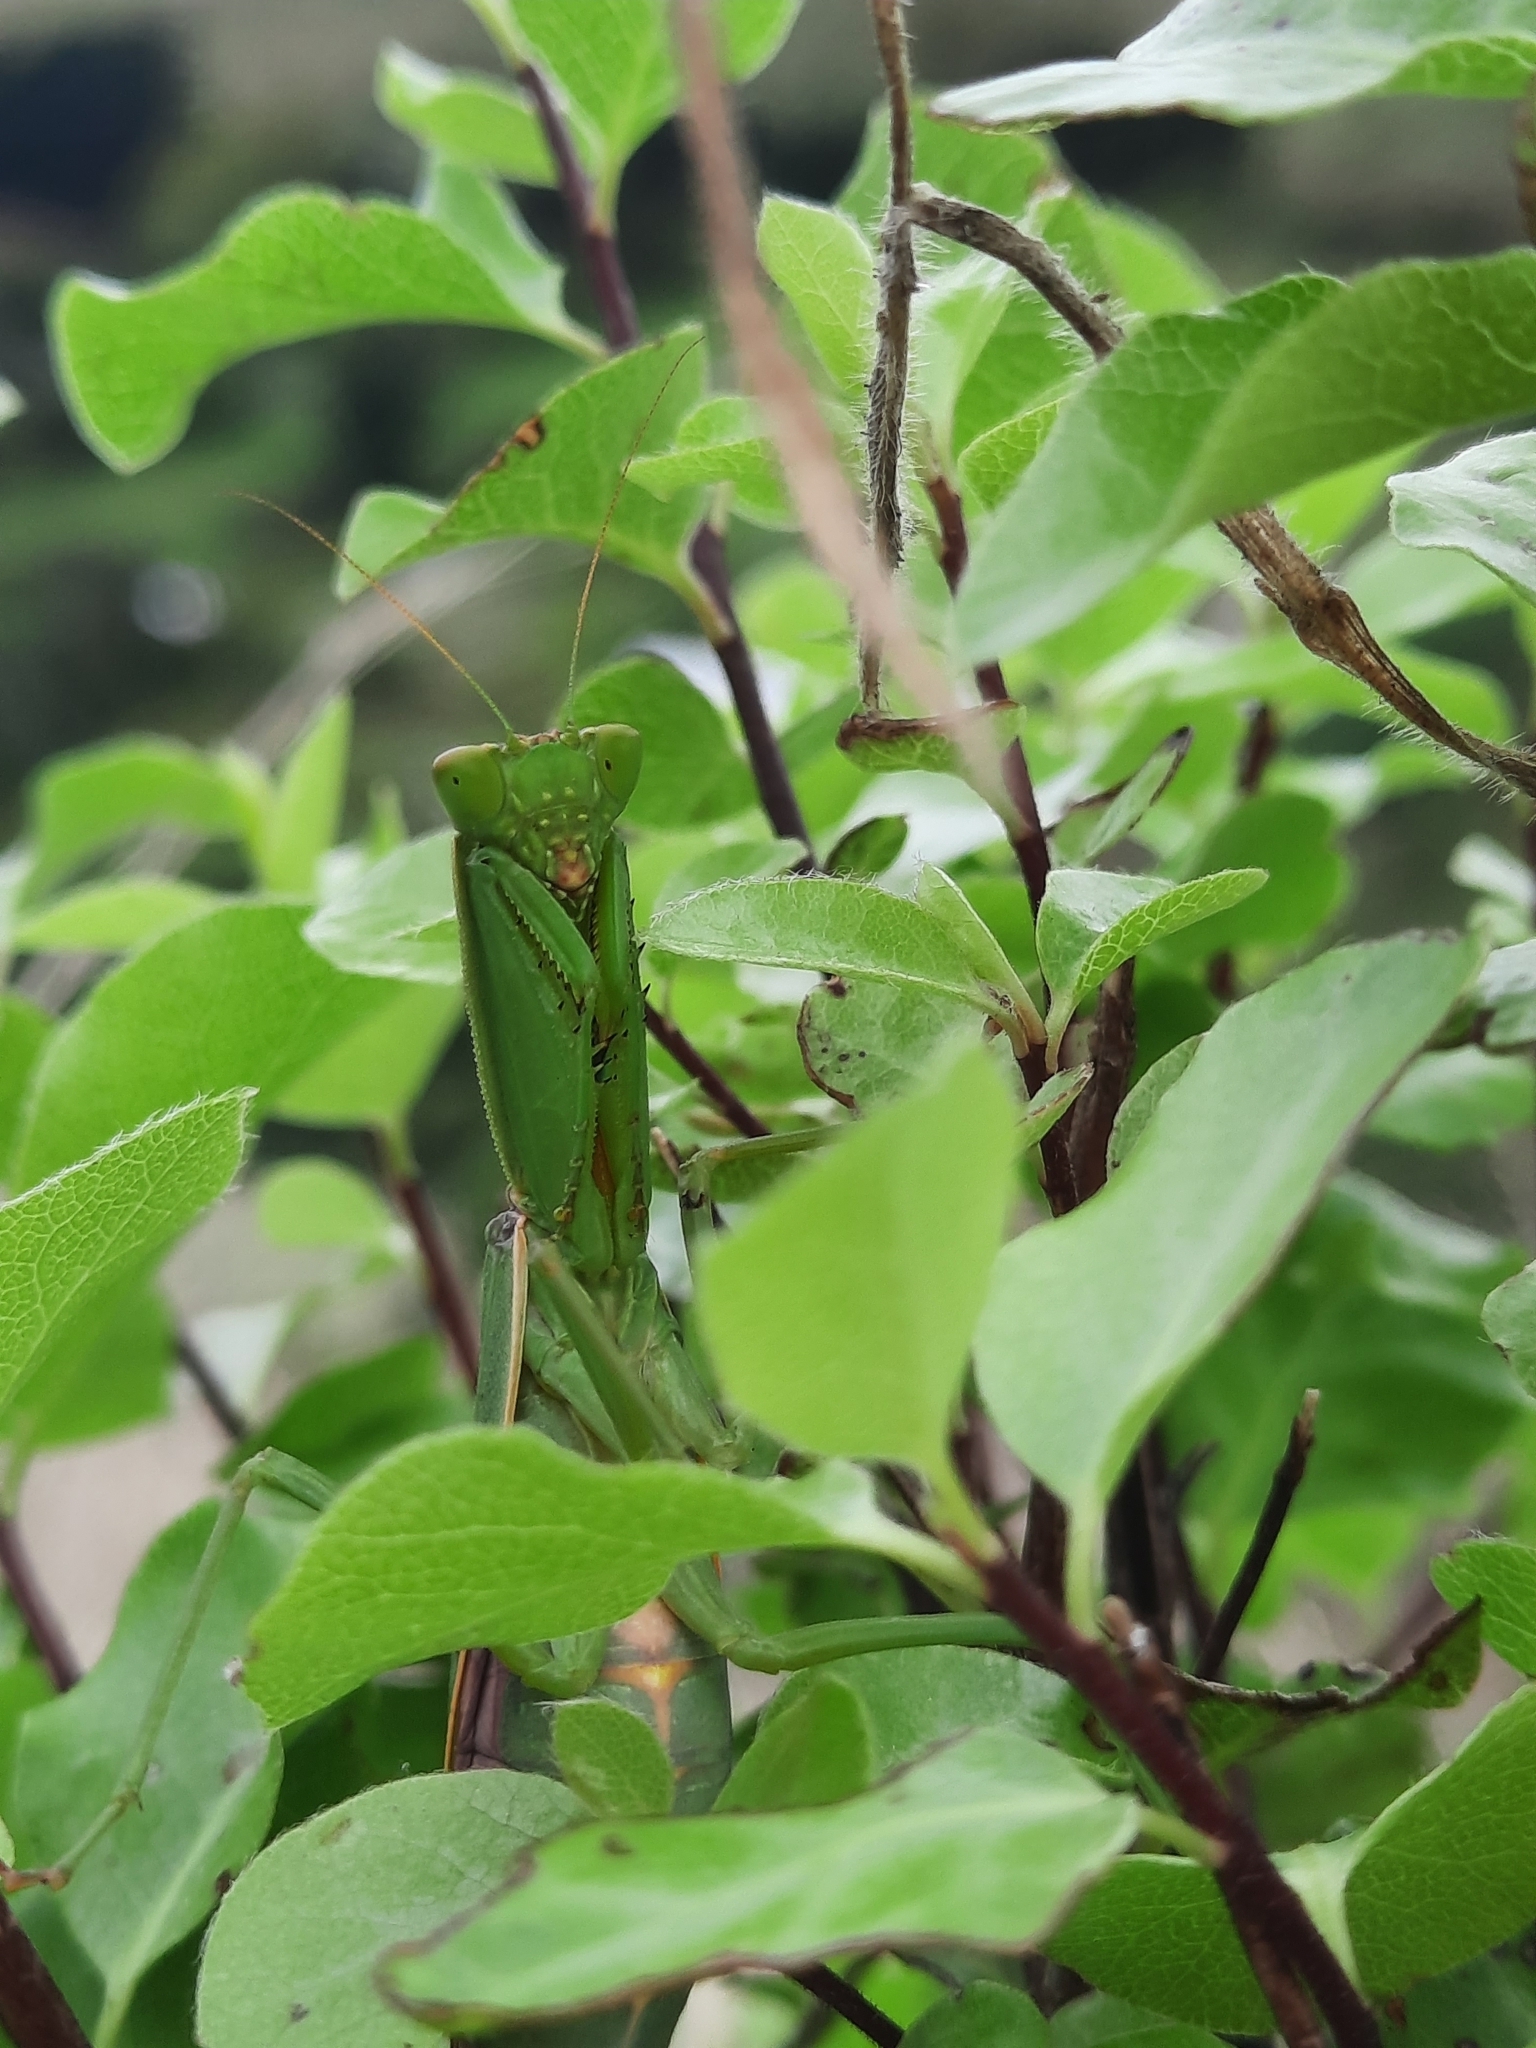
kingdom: Animalia
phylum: Arthropoda
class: Insecta
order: Mantodea
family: Mantidae
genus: Orthodera
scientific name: Orthodera novaezealandiae
